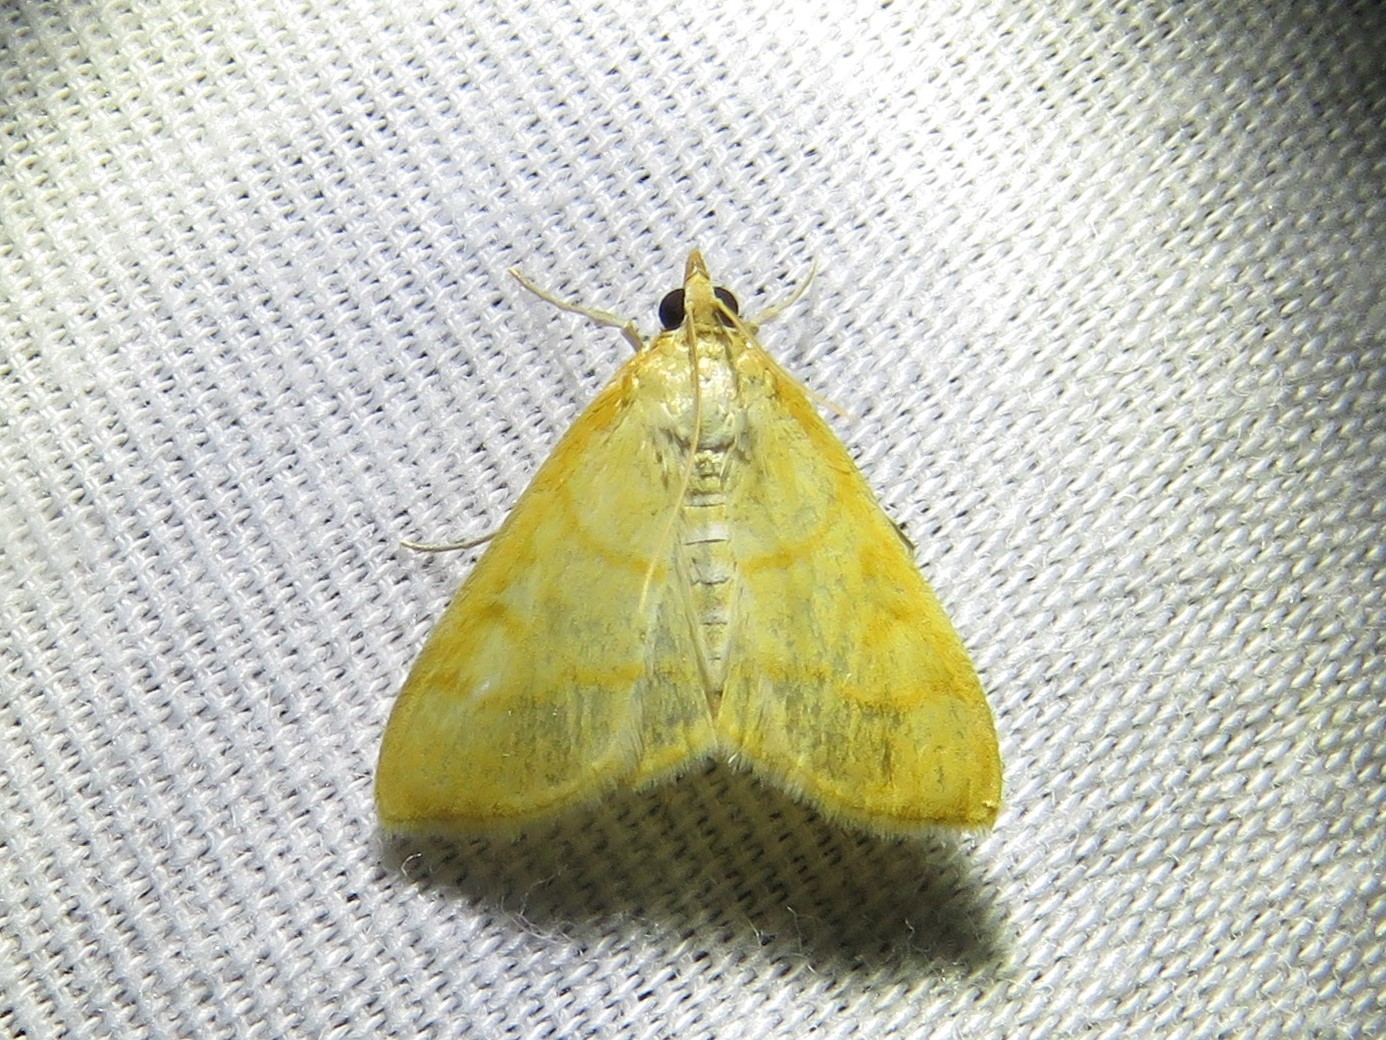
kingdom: Animalia
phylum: Arthropoda
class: Insecta
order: Lepidoptera
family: Crambidae
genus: Helvibotys
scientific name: Helvibotys helvialis
